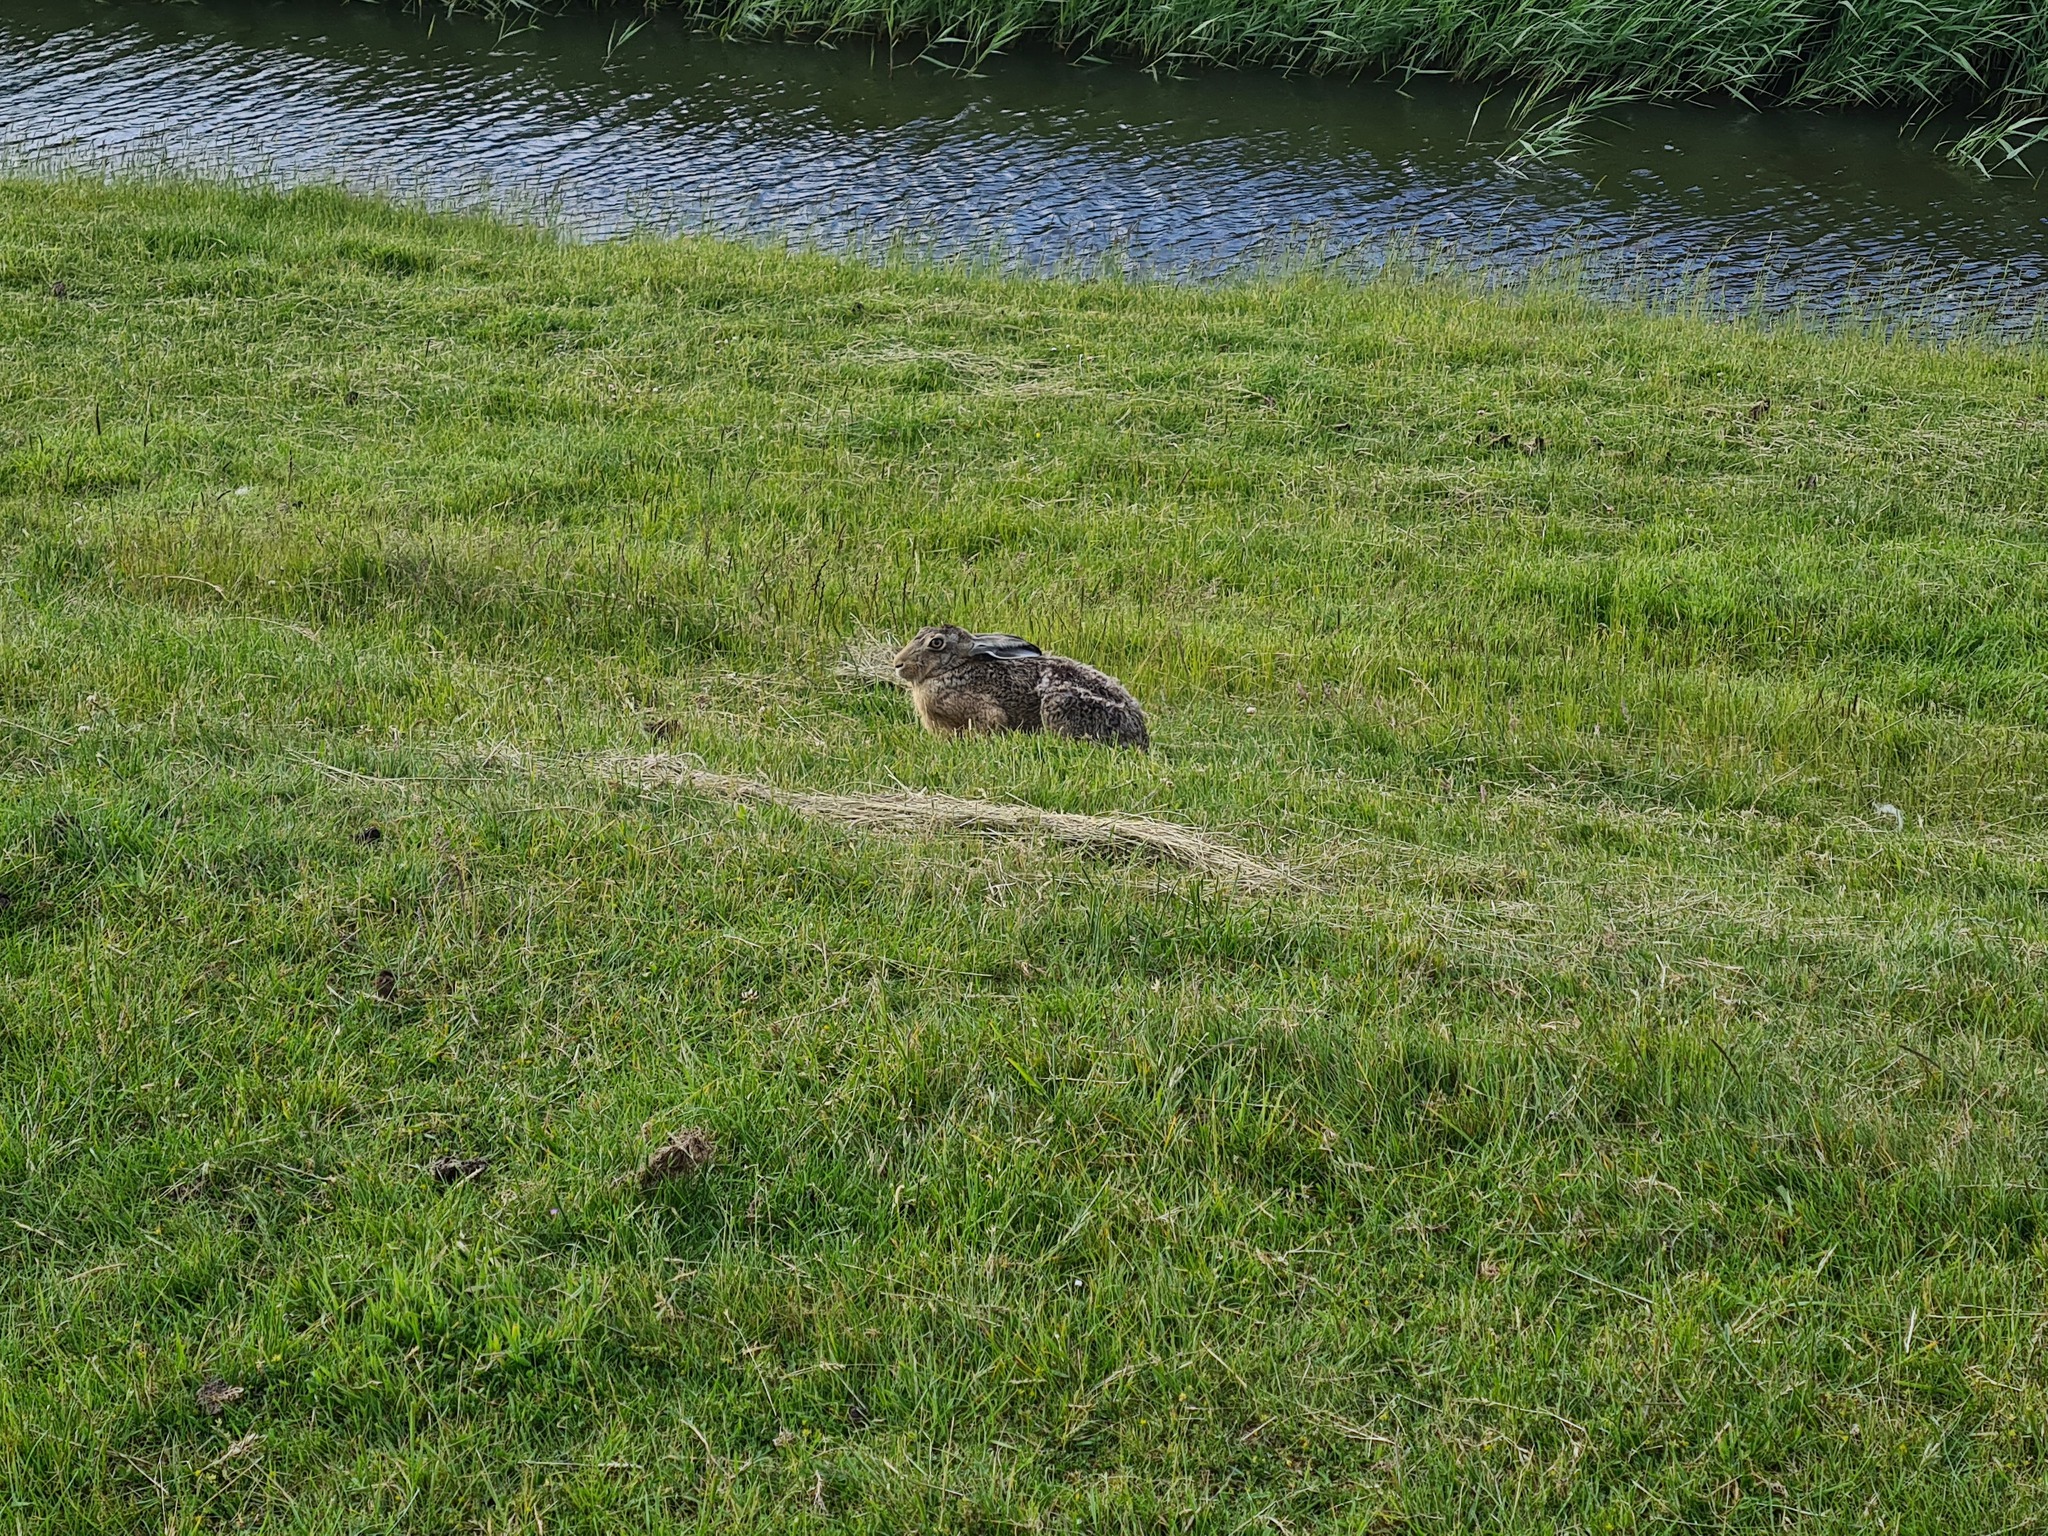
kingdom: Animalia
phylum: Chordata
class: Mammalia
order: Lagomorpha
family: Leporidae
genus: Lepus
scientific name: Lepus europaeus
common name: European hare
